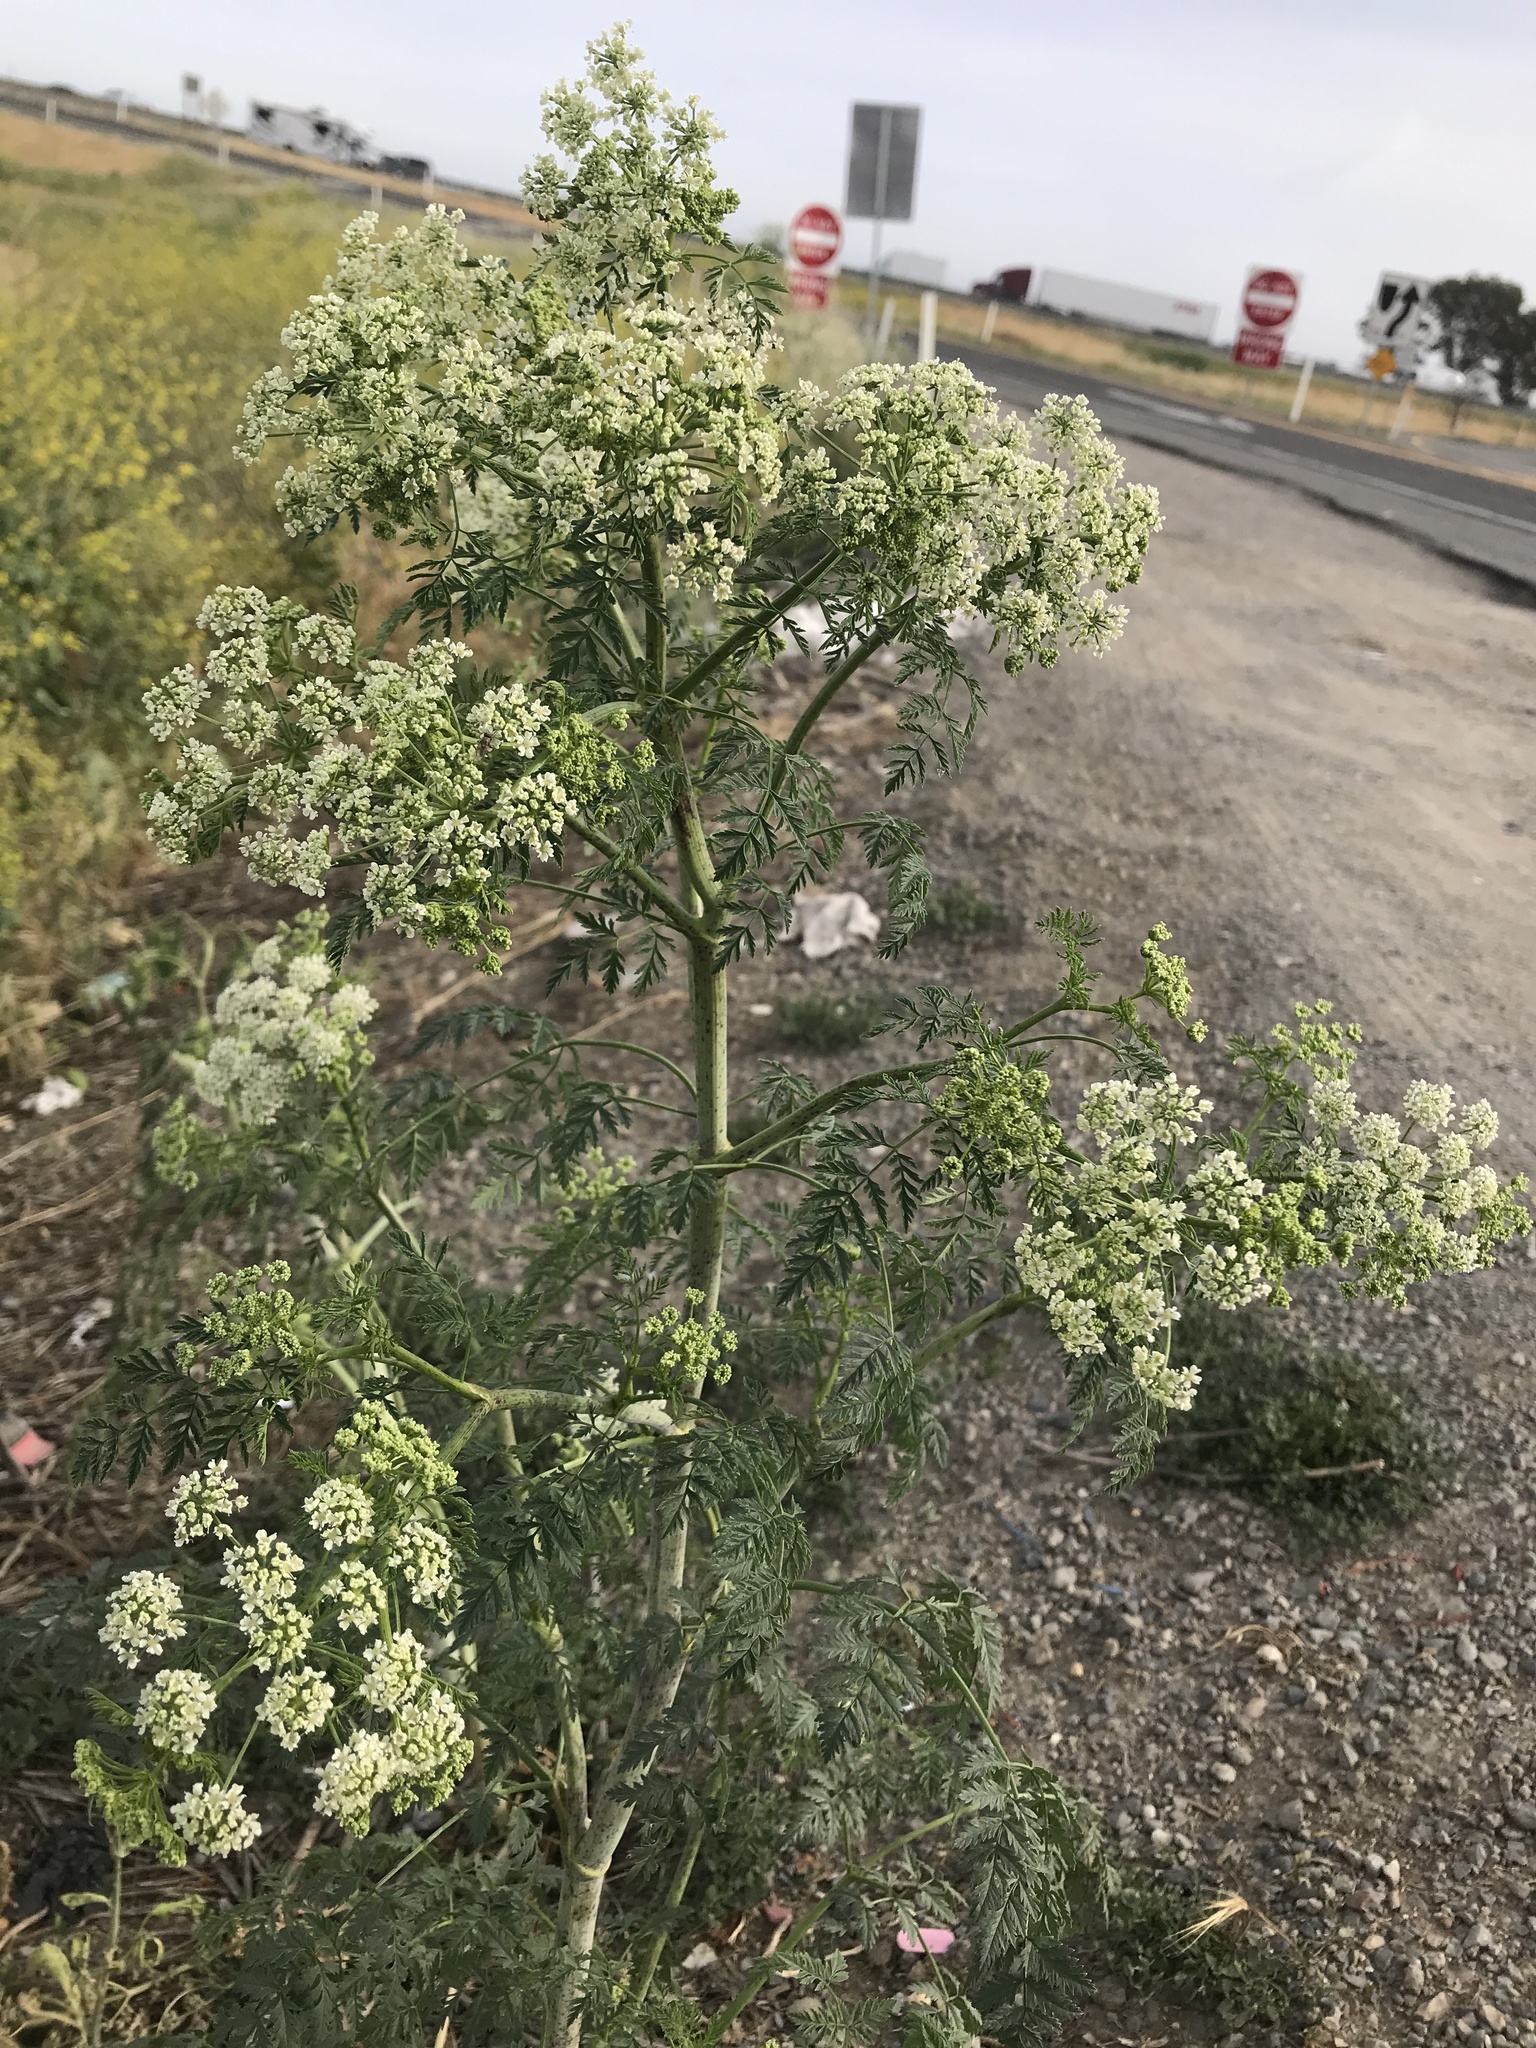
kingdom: Plantae
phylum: Tracheophyta
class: Magnoliopsida
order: Apiales
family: Apiaceae
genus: Conium
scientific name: Conium maculatum
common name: Hemlock
